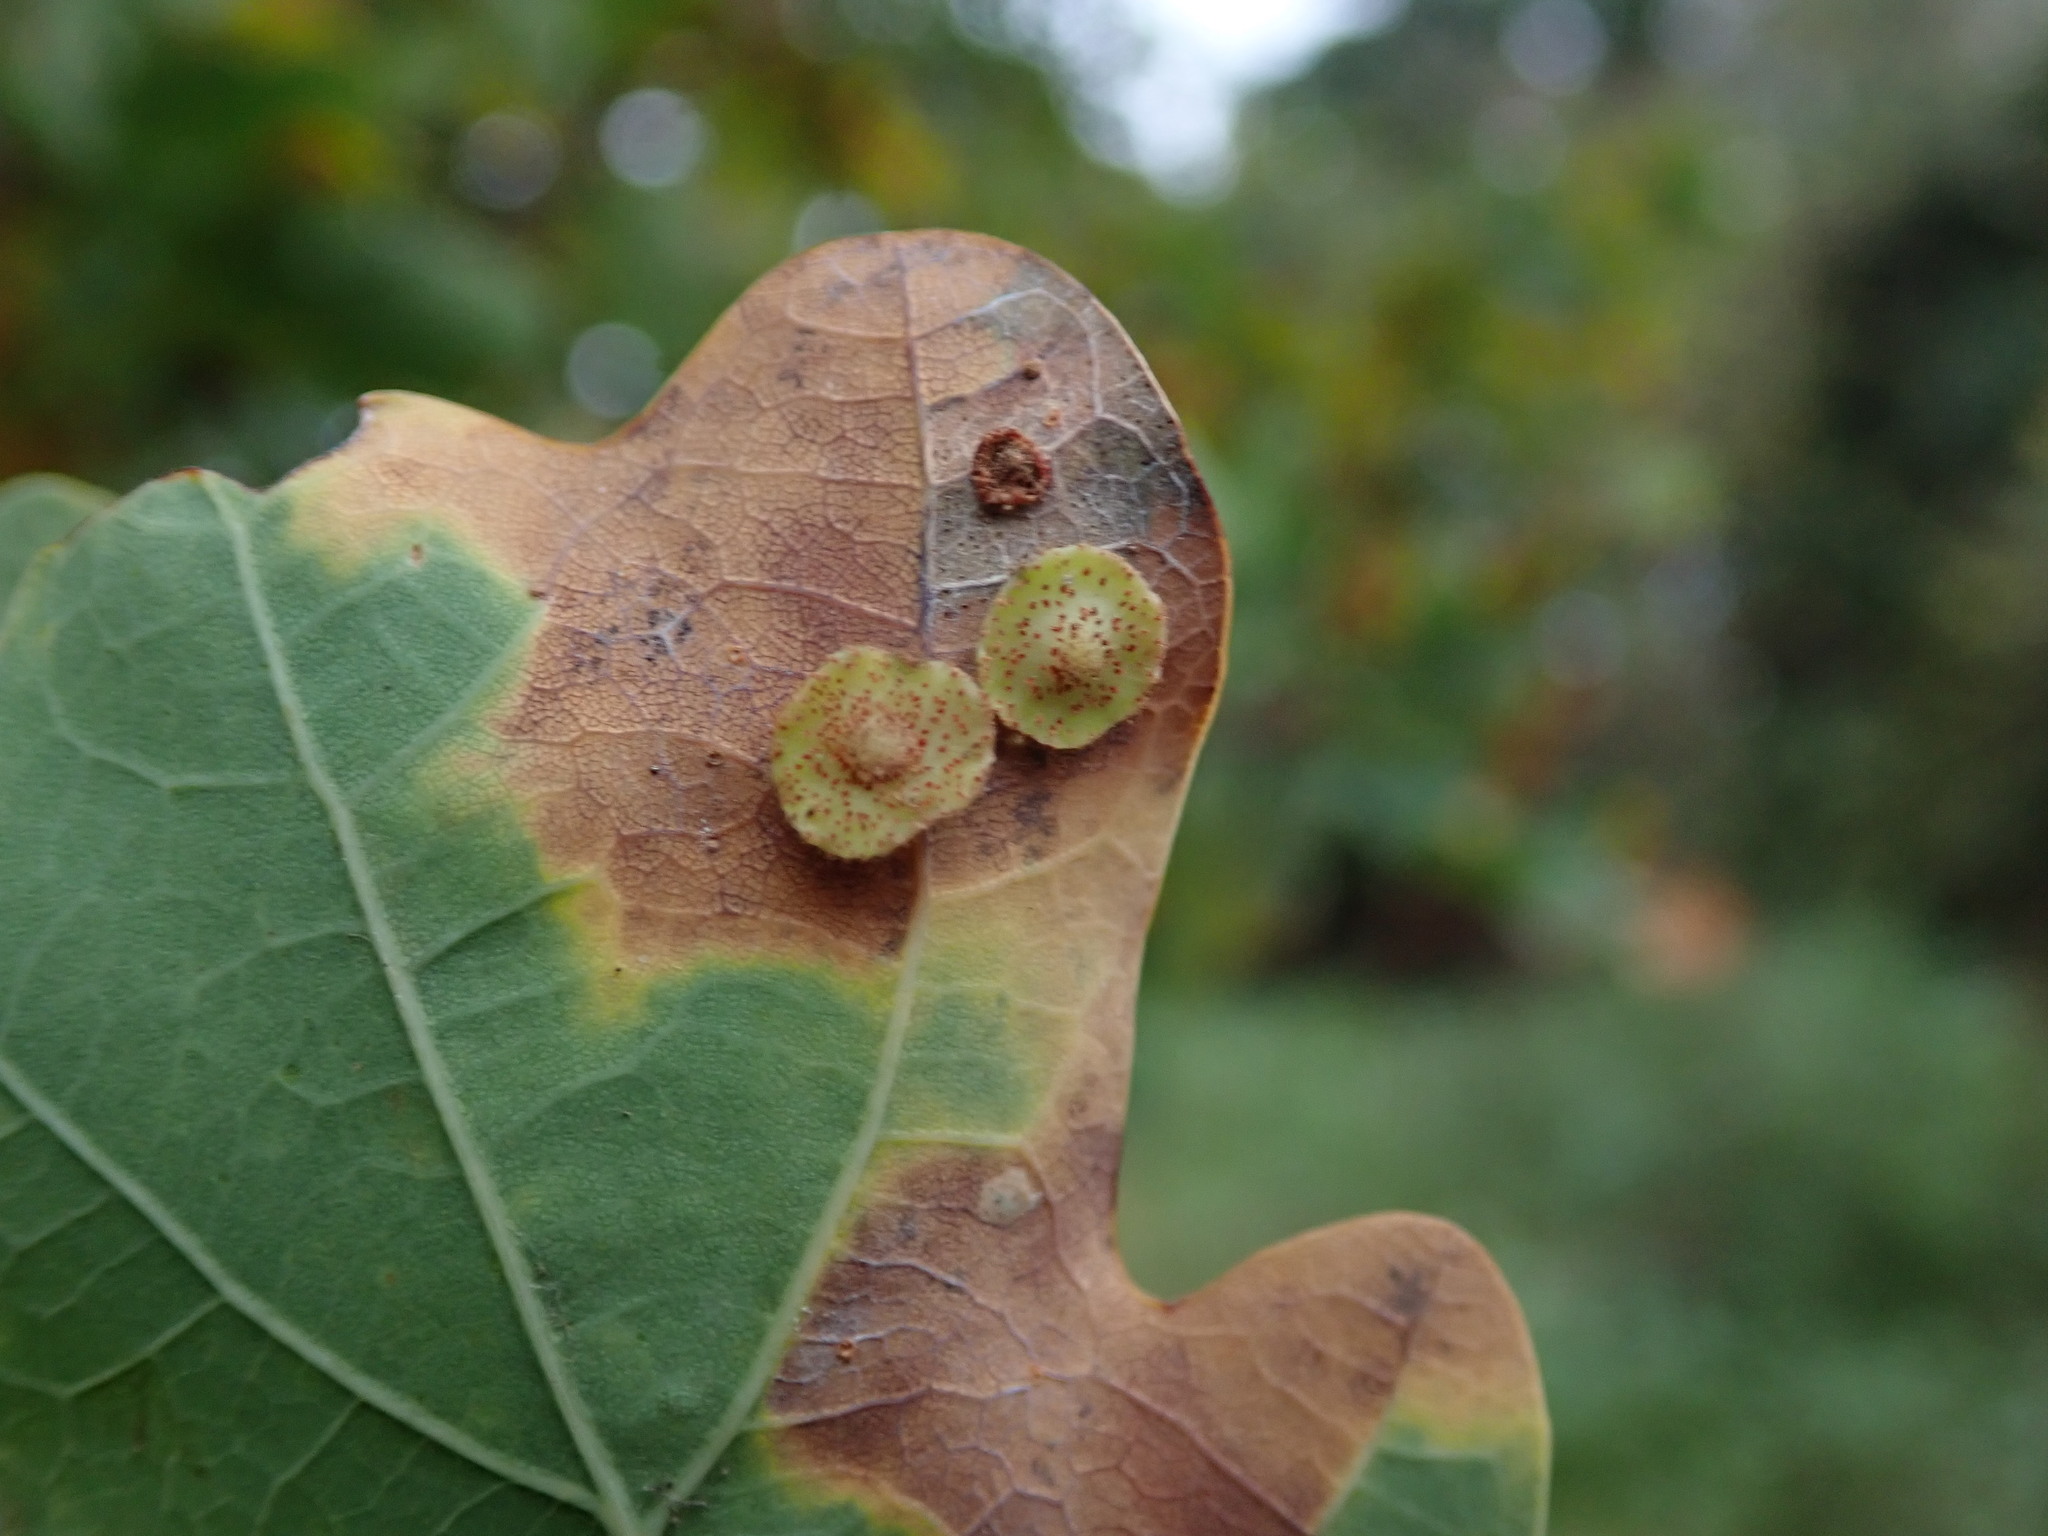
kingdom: Animalia
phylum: Arthropoda
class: Insecta
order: Hymenoptera
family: Cynipidae
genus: Neuroterus
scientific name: Neuroterus quercusbaccarum
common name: Common spangle gall
